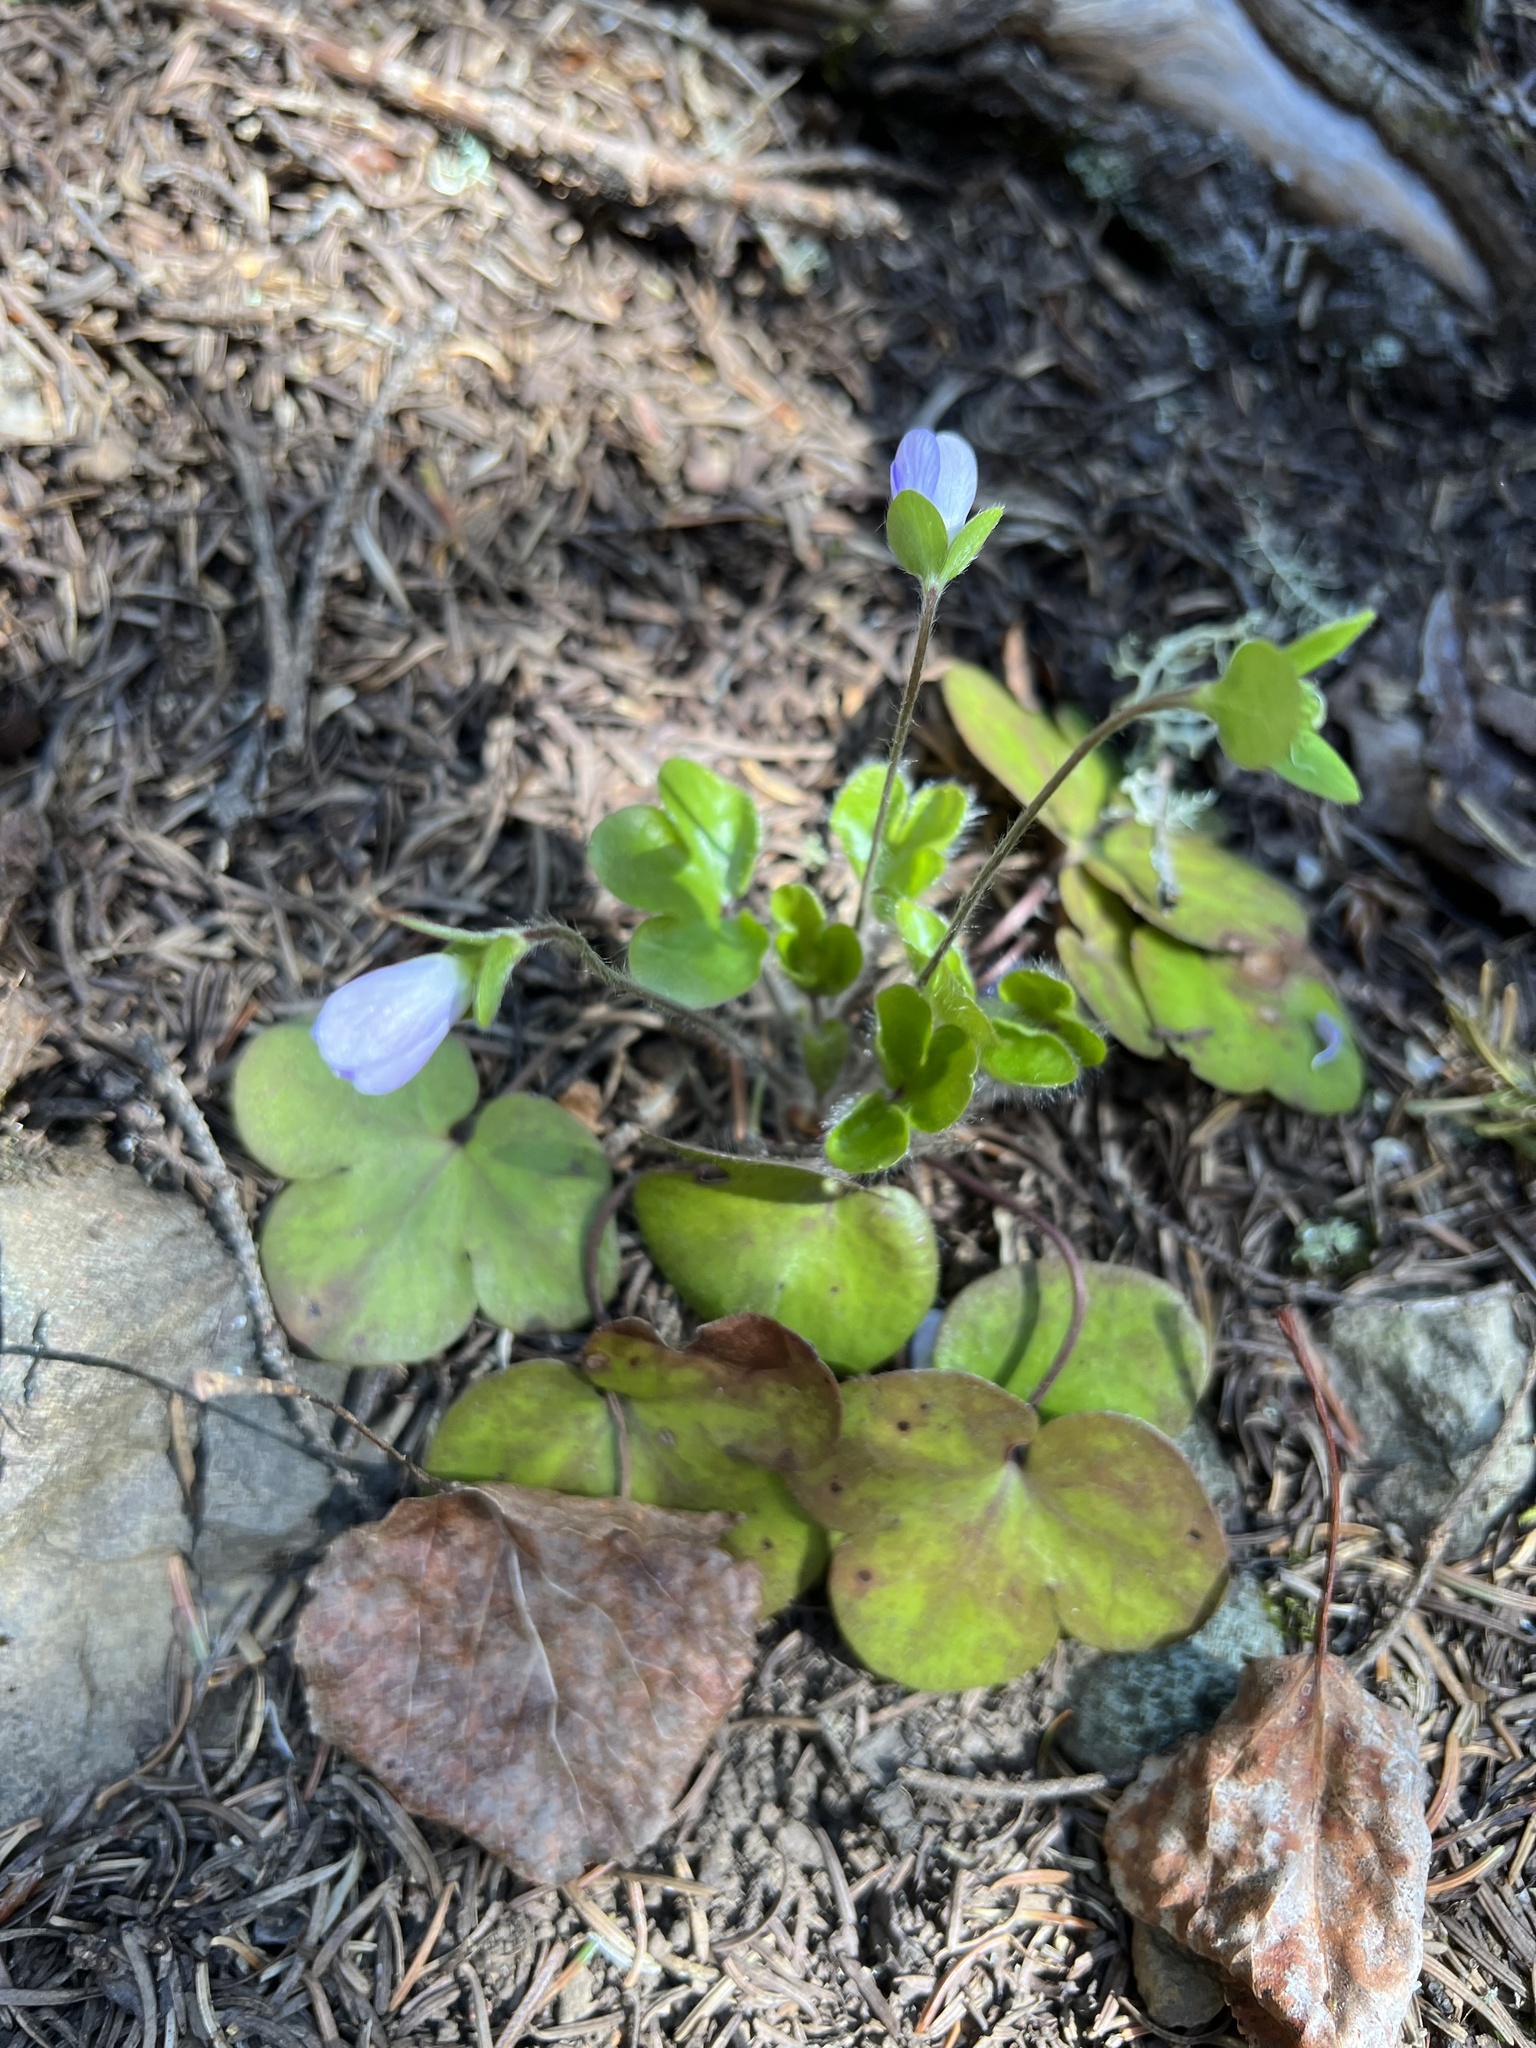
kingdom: Plantae
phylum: Tracheophyta
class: Magnoliopsida
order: Ranunculales
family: Ranunculaceae
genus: Hepatica
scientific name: Hepatica americana
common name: American hepatica
